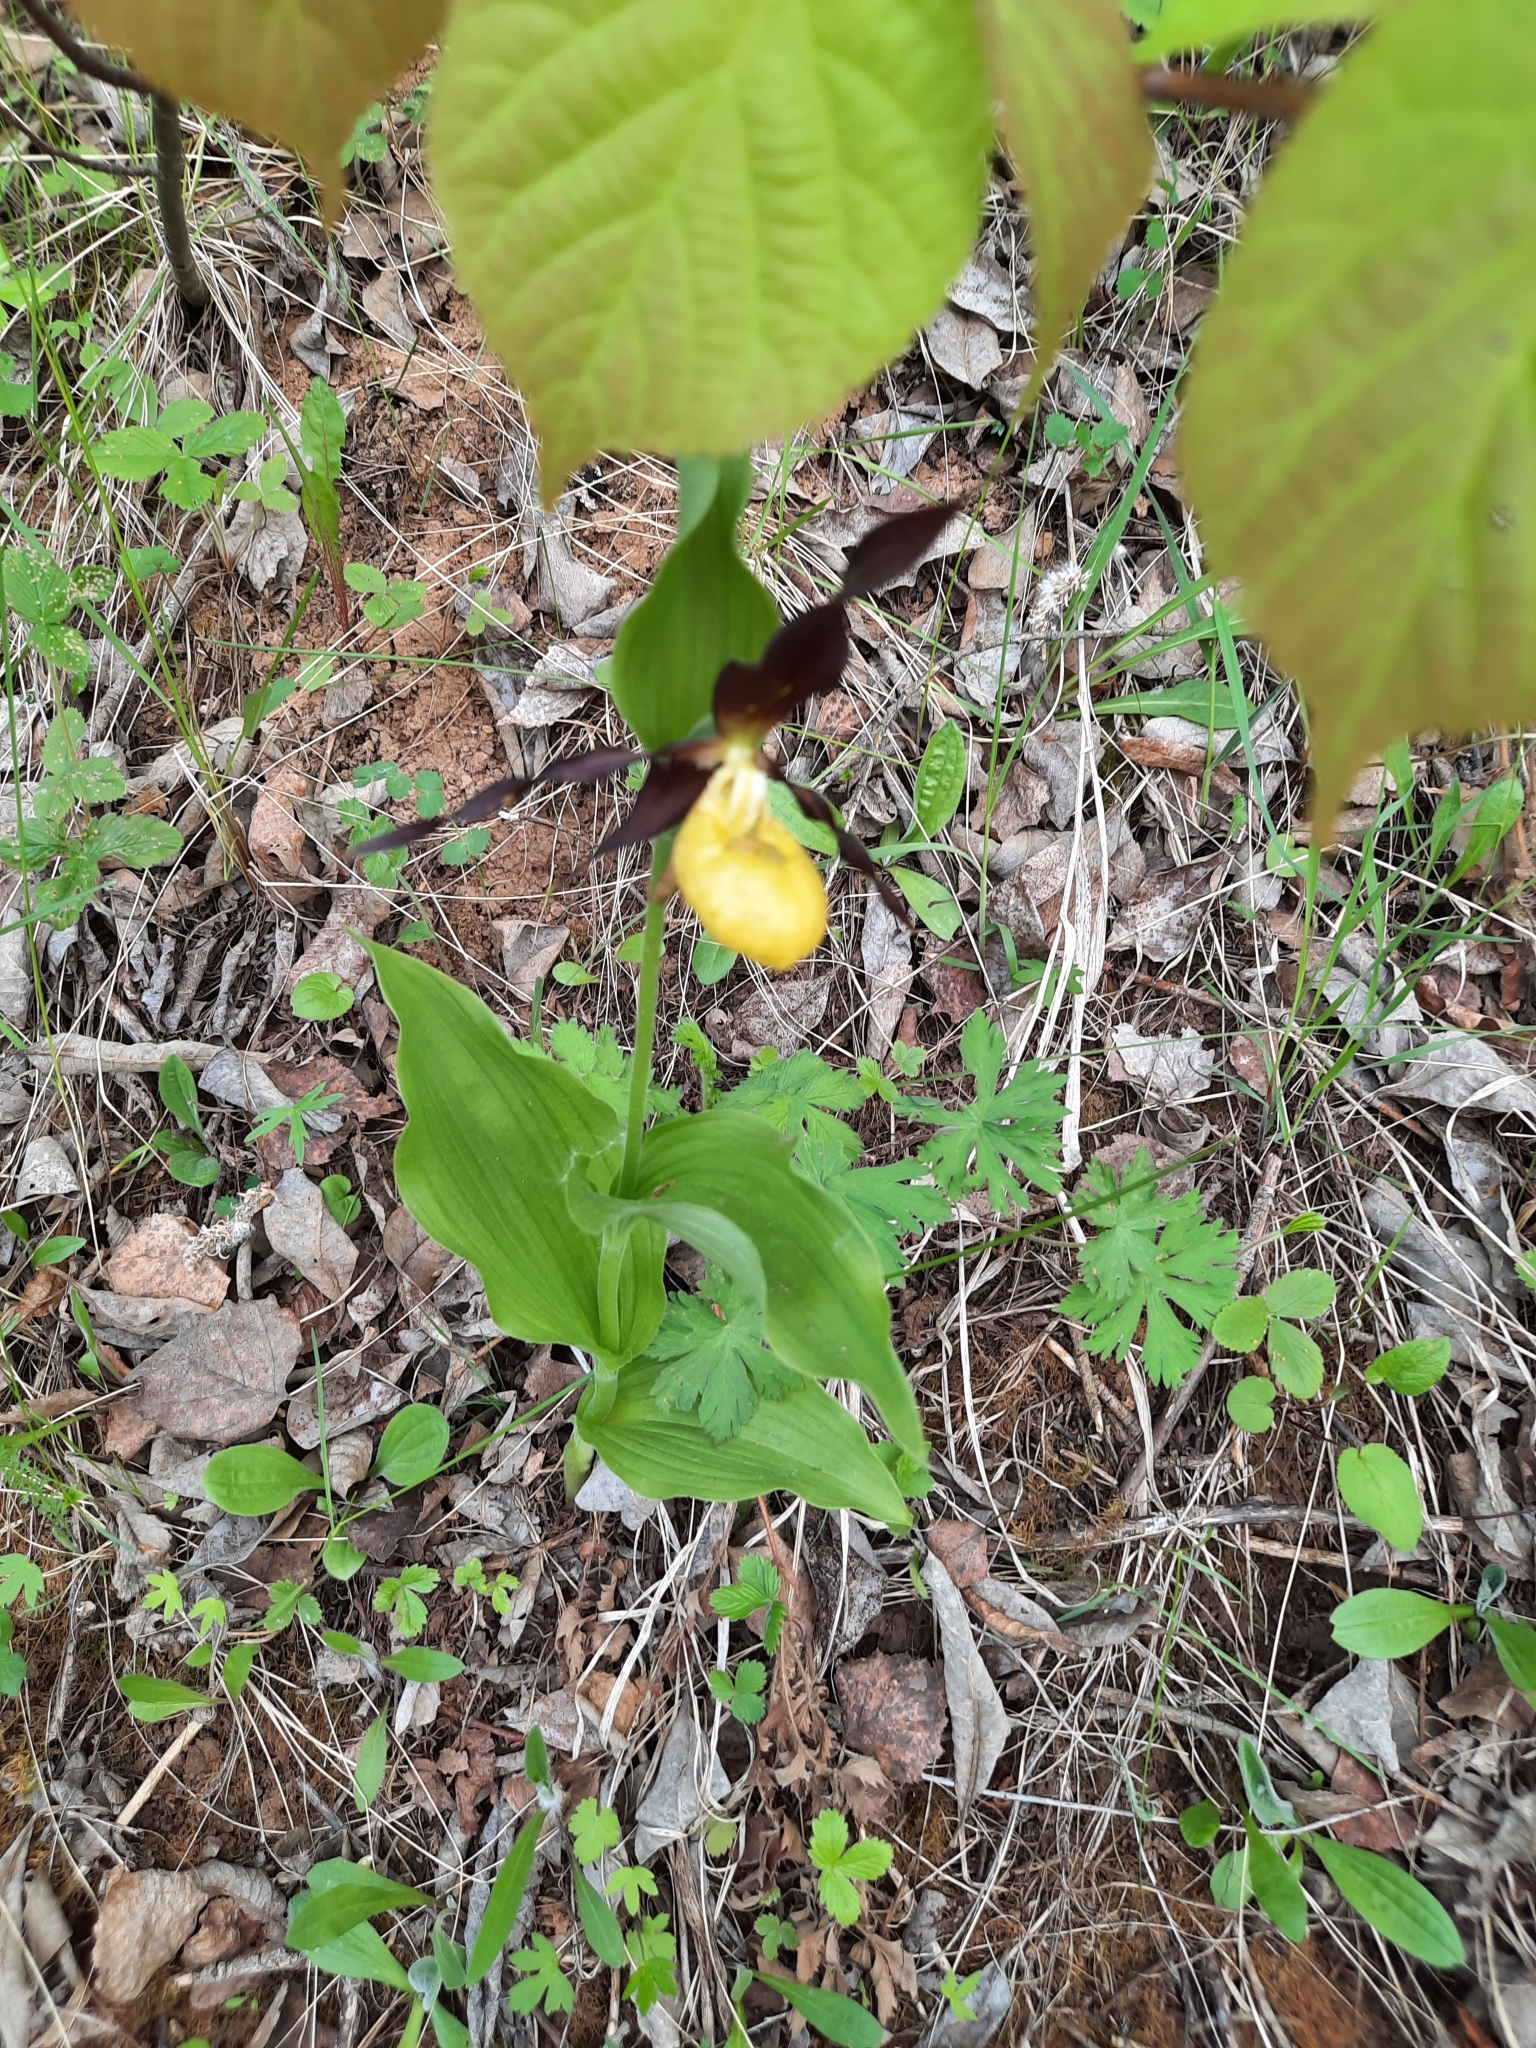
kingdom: Plantae
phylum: Tracheophyta
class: Liliopsida
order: Asparagales
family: Orchidaceae
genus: Cypripedium
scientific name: Cypripedium calceolus
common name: Lady's-slipper
